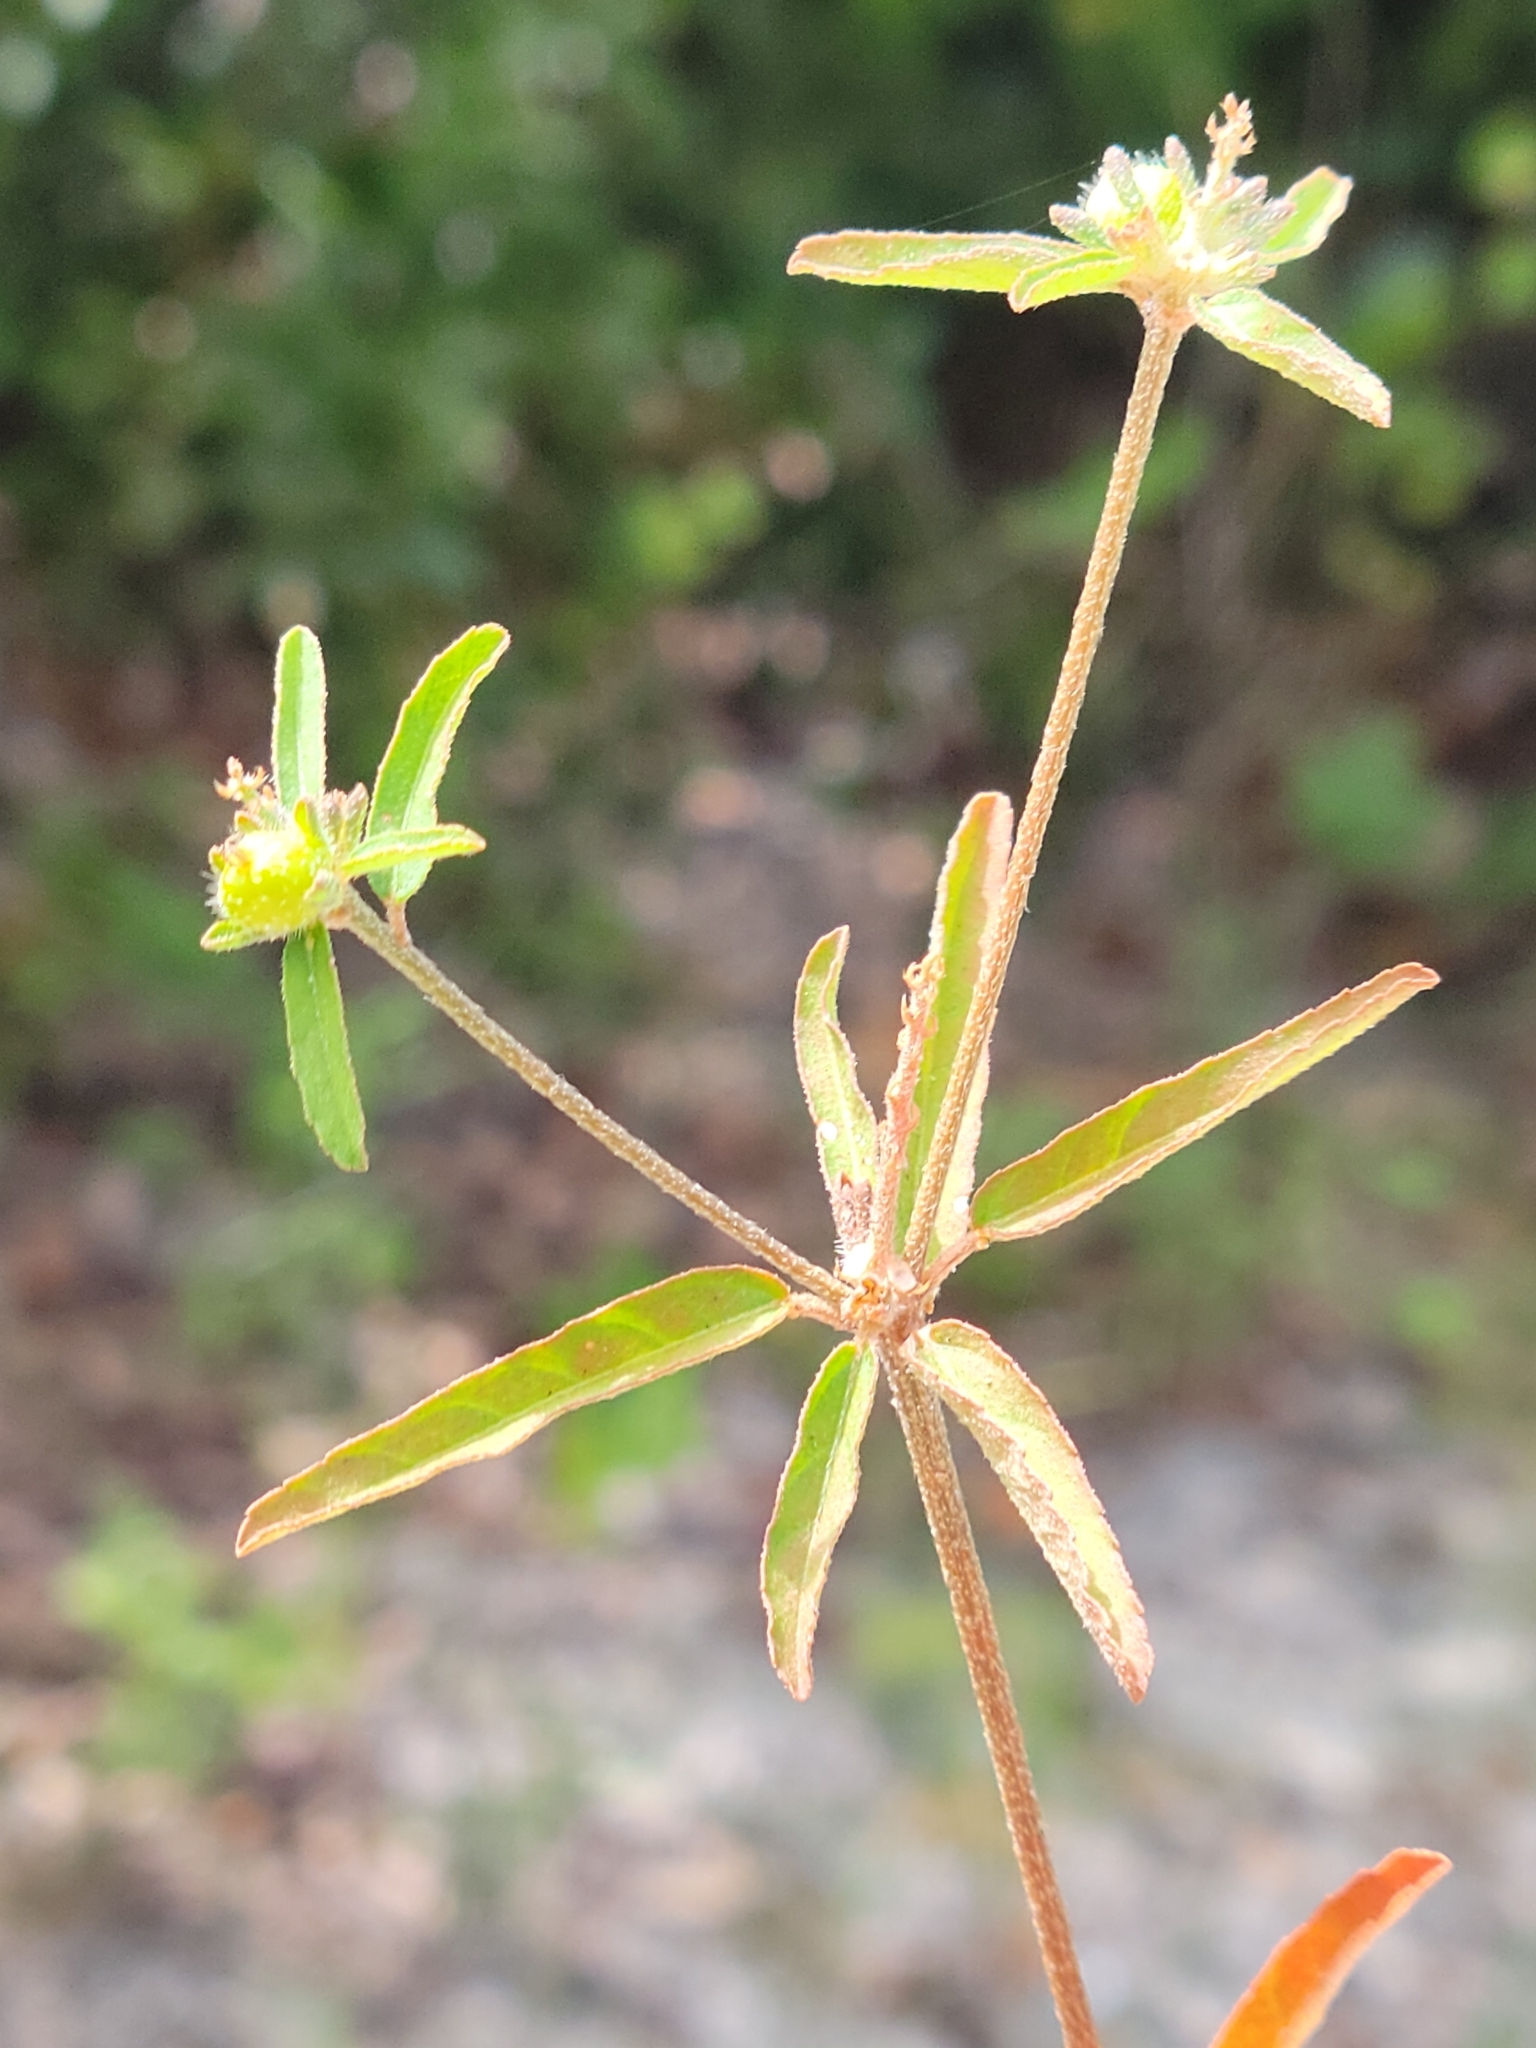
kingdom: Plantae
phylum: Tracheophyta
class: Magnoliopsida
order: Malpighiales
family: Euphorbiaceae
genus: Croton
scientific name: Croton glandulosus
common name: Tropic croton
